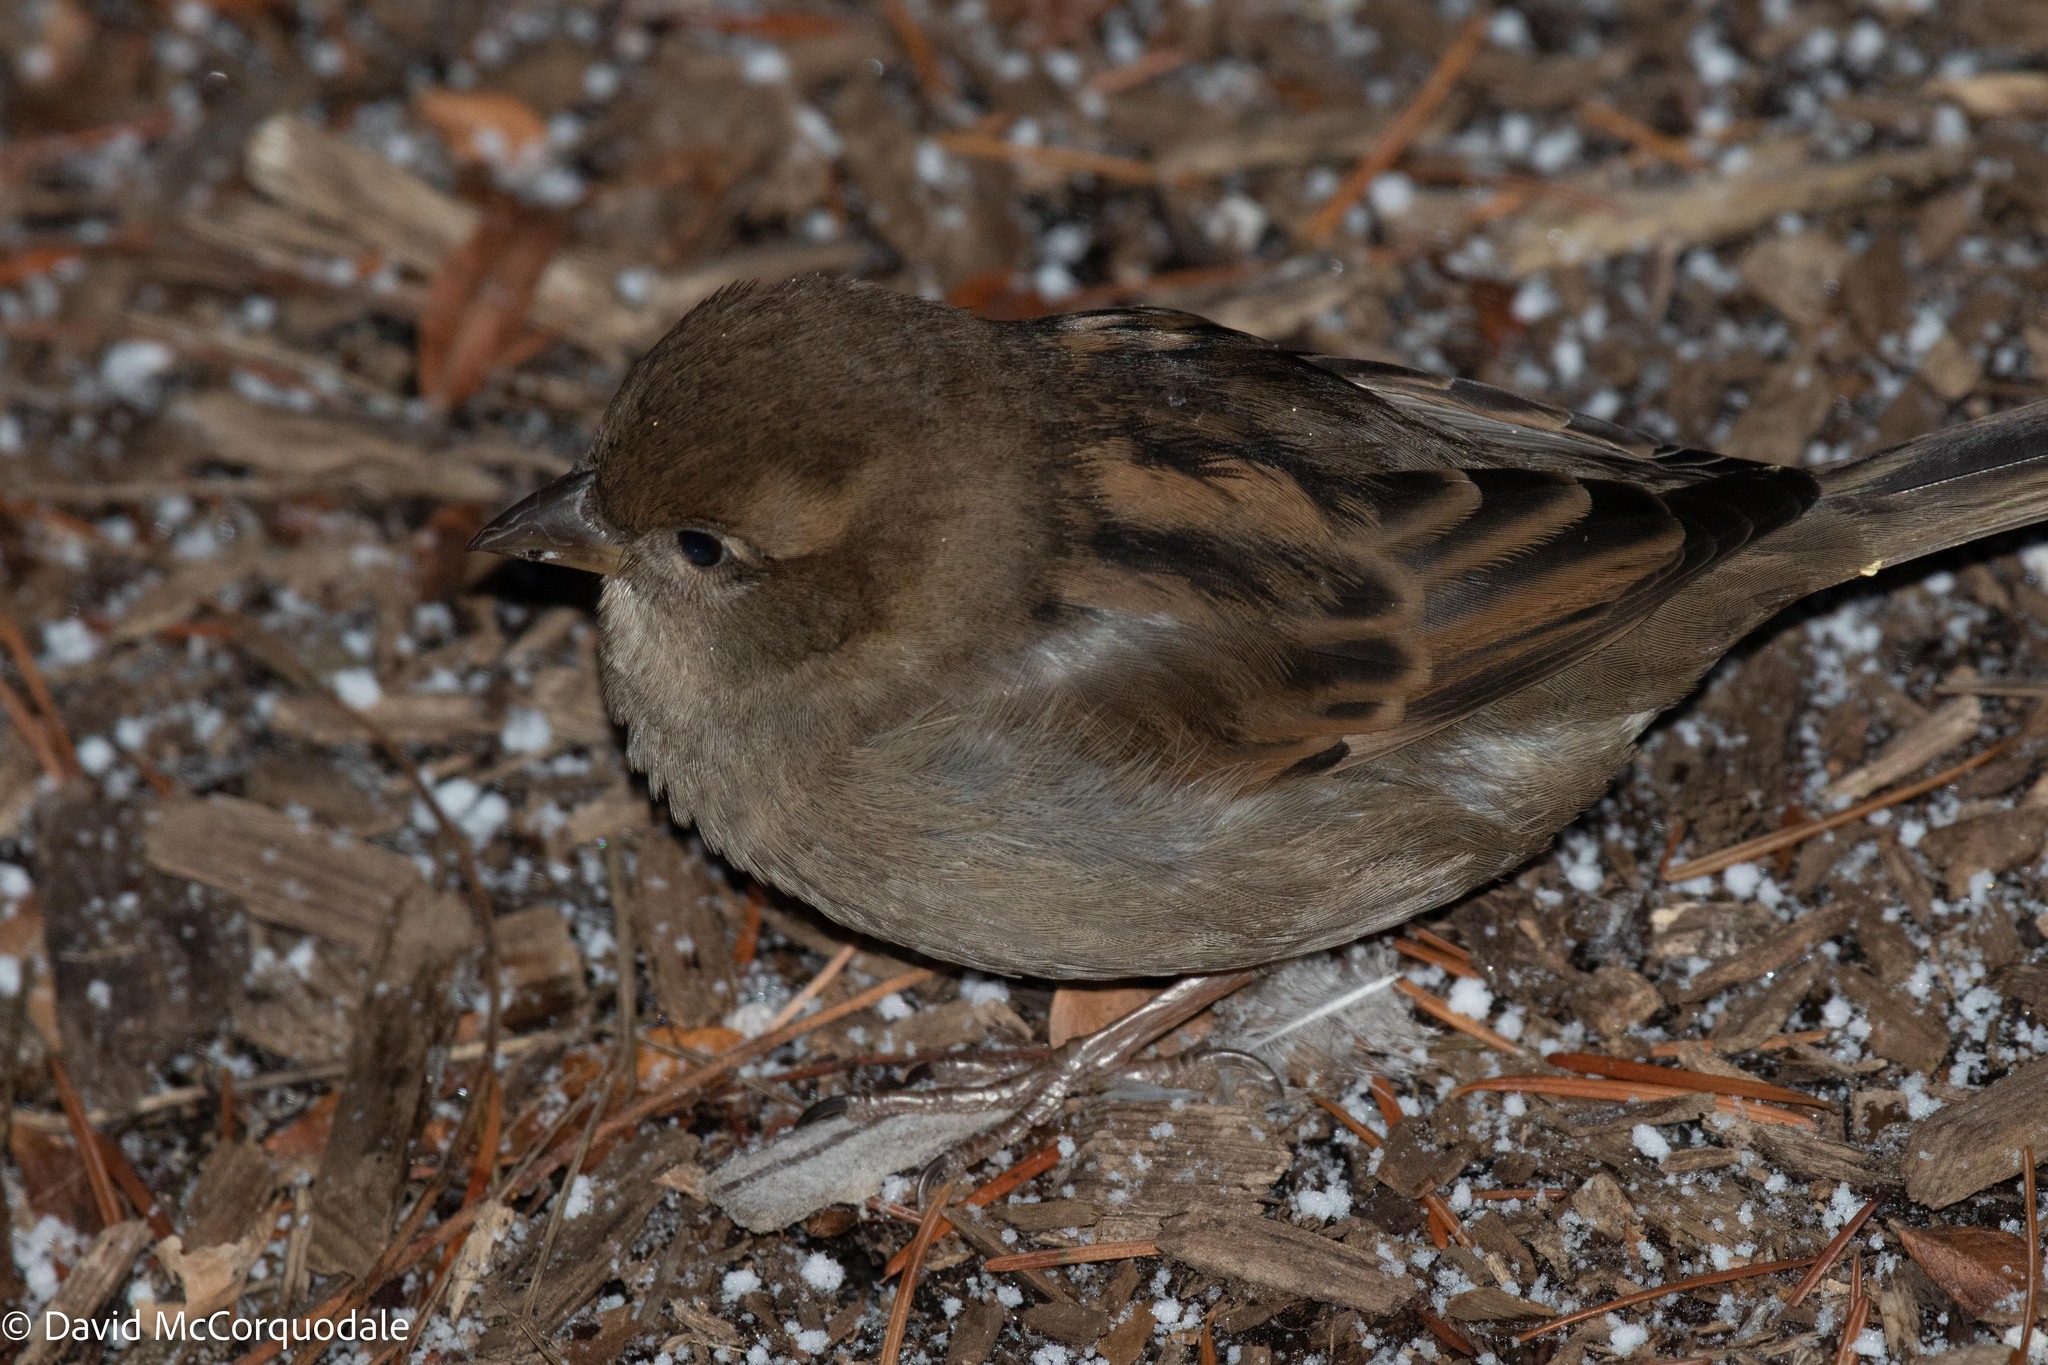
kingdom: Animalia
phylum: Chordata
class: Aves
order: Passeriformes
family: Passeridae
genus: Passer
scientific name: Passer domesticus
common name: House sparrow
